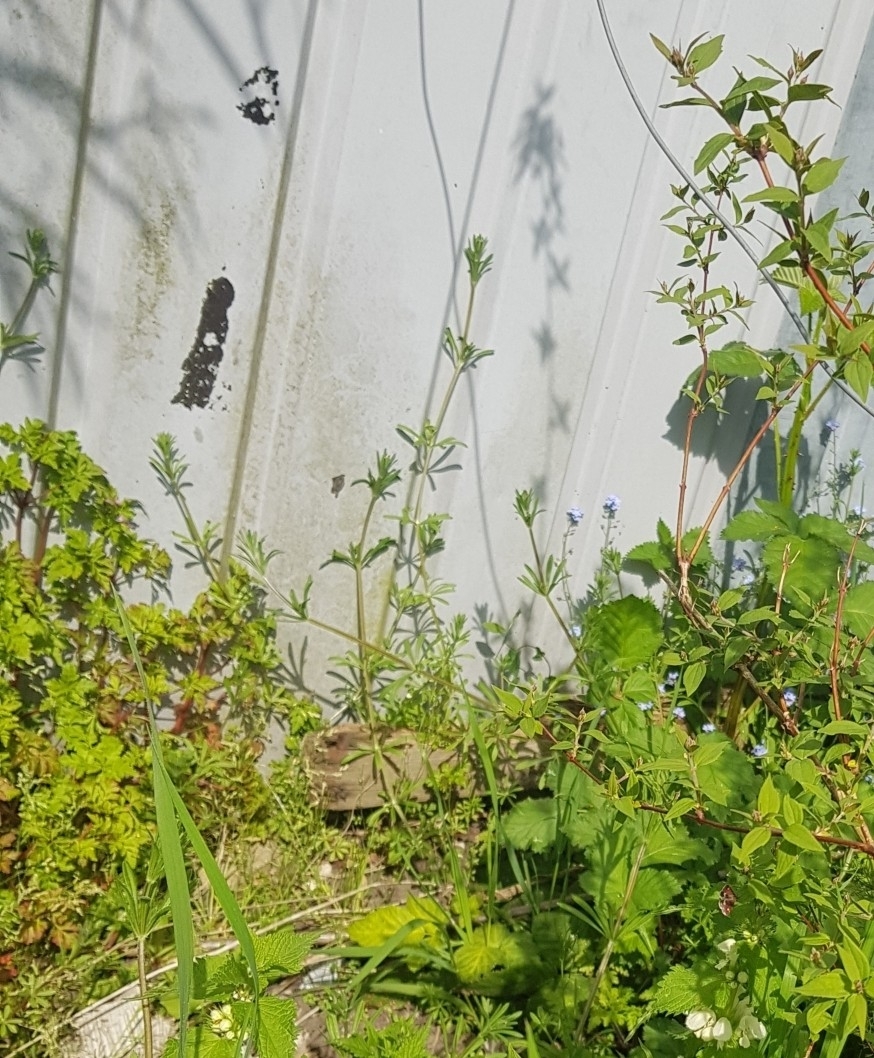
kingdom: Plantae
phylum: Tracheophyta
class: Magnoliopsida
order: Gentianales
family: Rubiaceae
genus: Galium
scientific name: Galium aparine
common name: Cleavers
